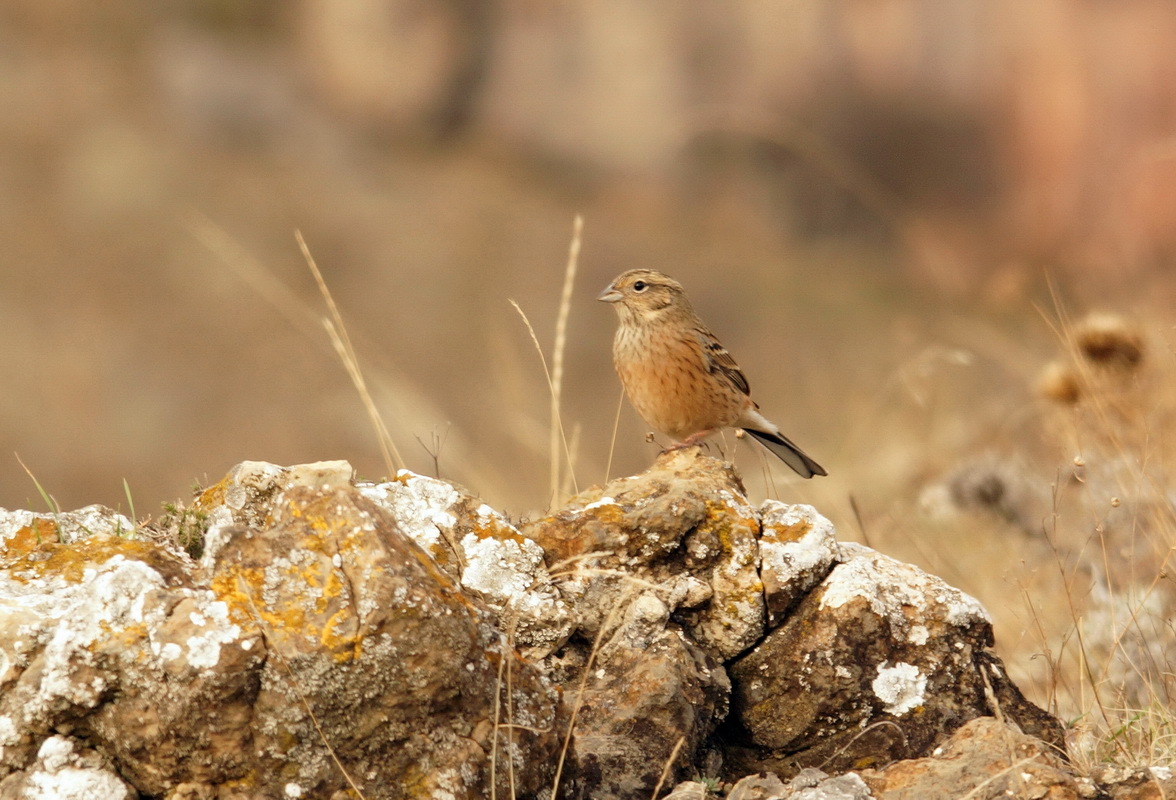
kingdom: Animalia
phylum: Chordata
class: Aves
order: Passeriformes
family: Emberizidae
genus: Emberiza
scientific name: Emberiza cia
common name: Rock bunting
